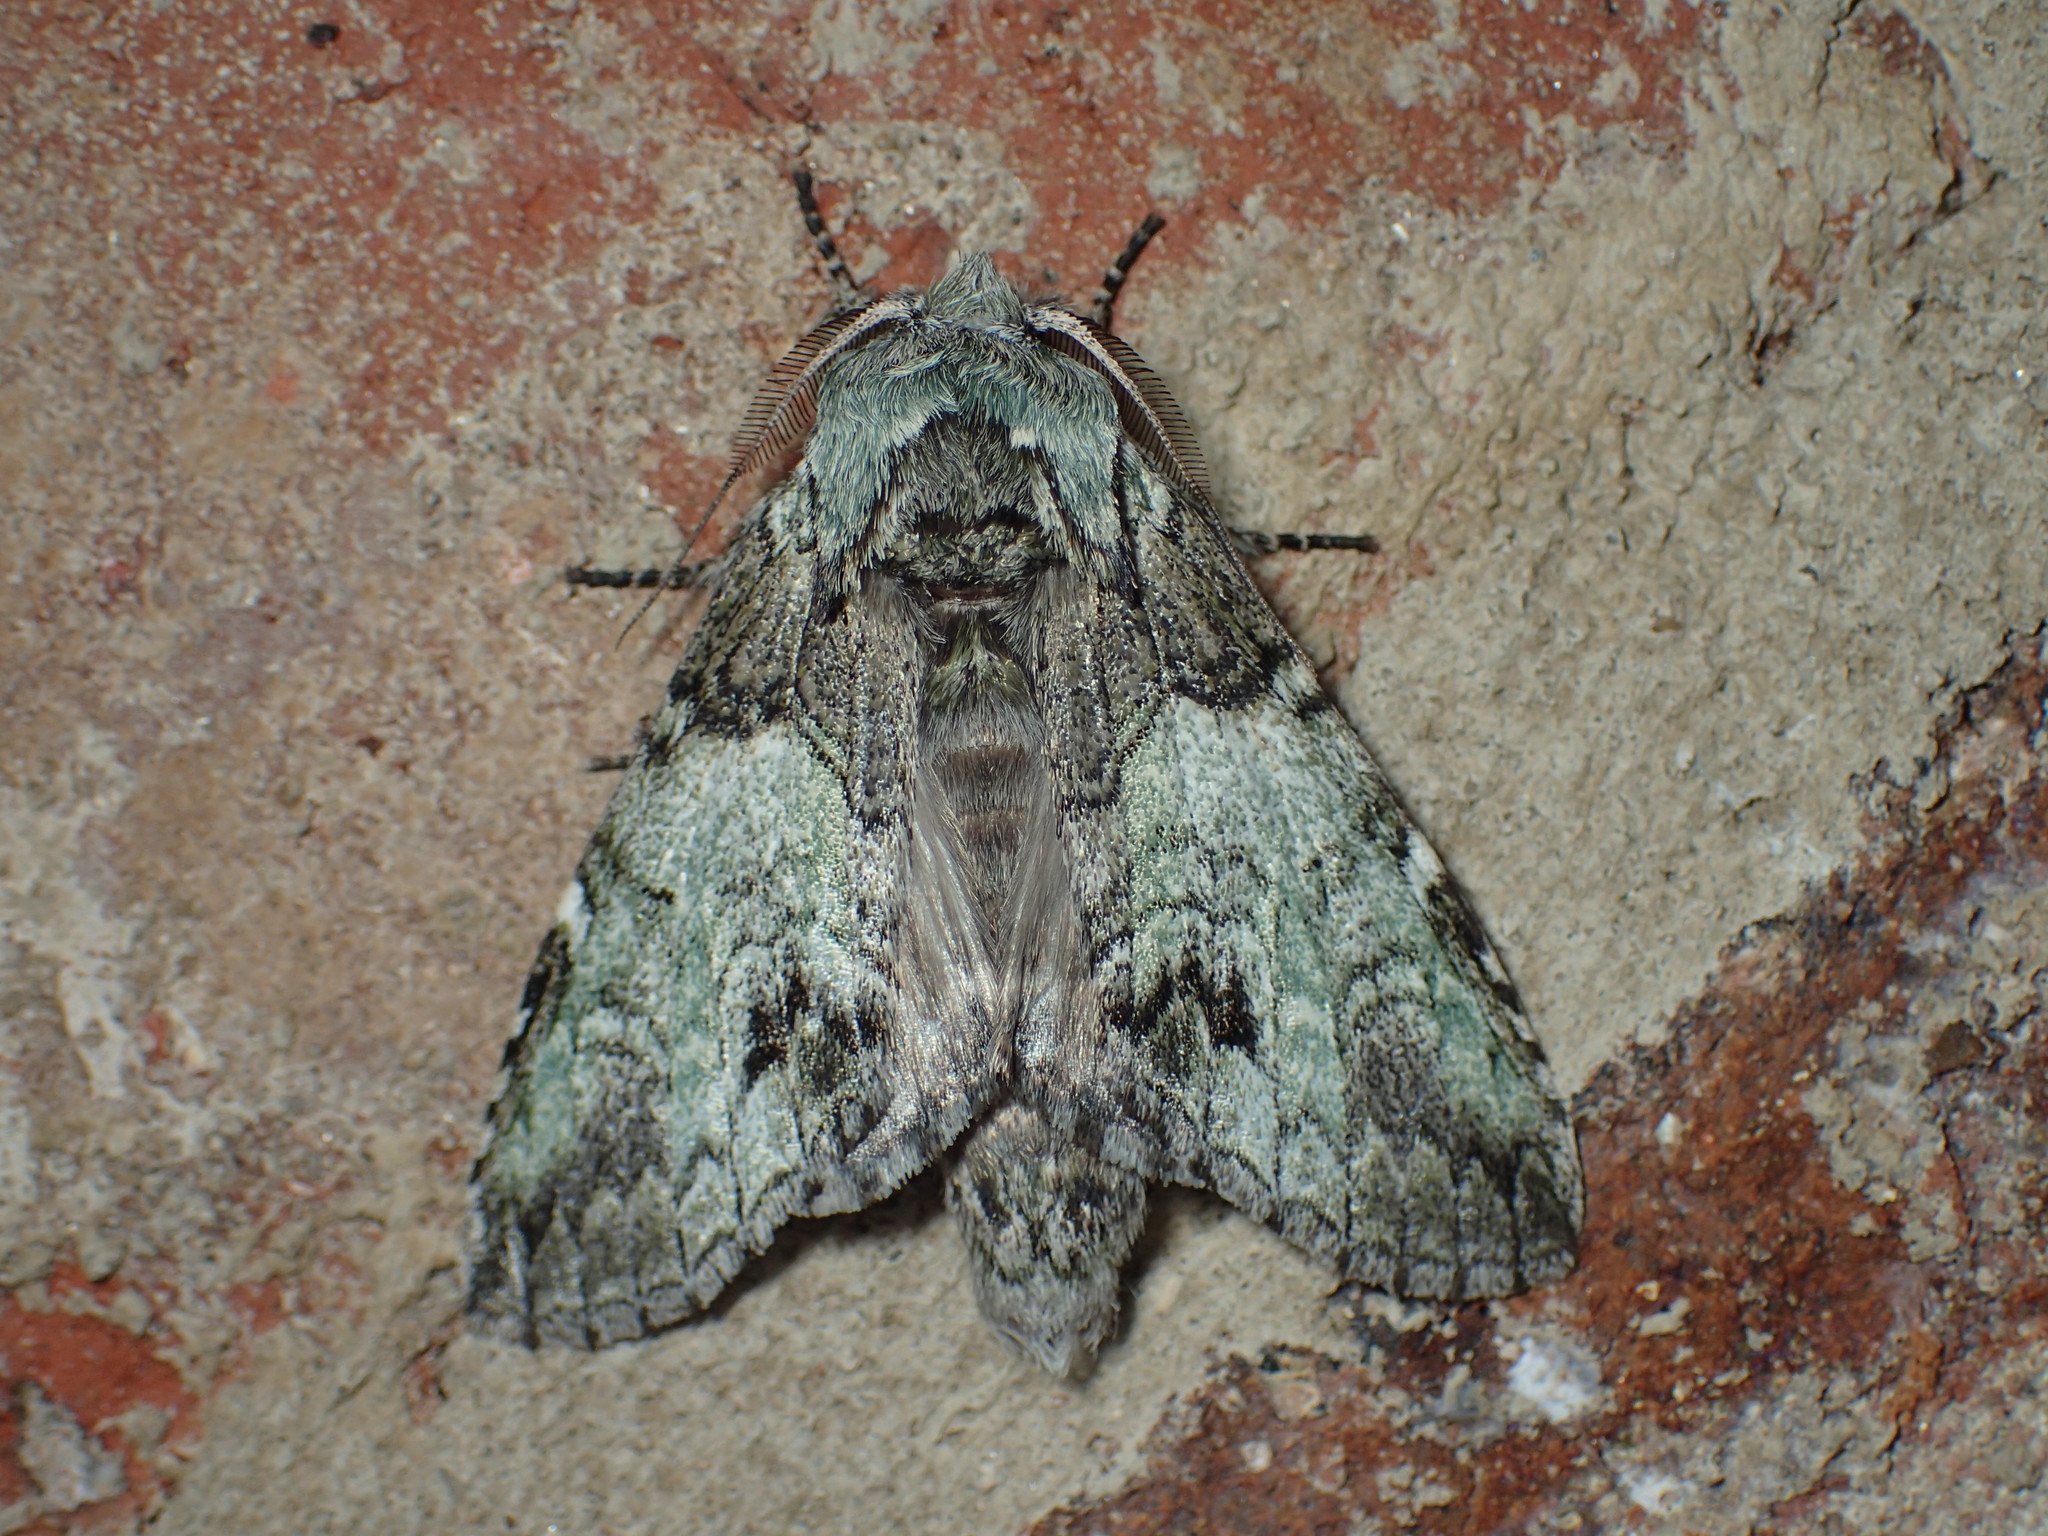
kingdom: Animalia
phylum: Arthropoda
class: Insecta
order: Lepidoptera
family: Notodontidae
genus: Macrurocampa
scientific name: Macrurocampa marthesia
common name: Mottled prominent
